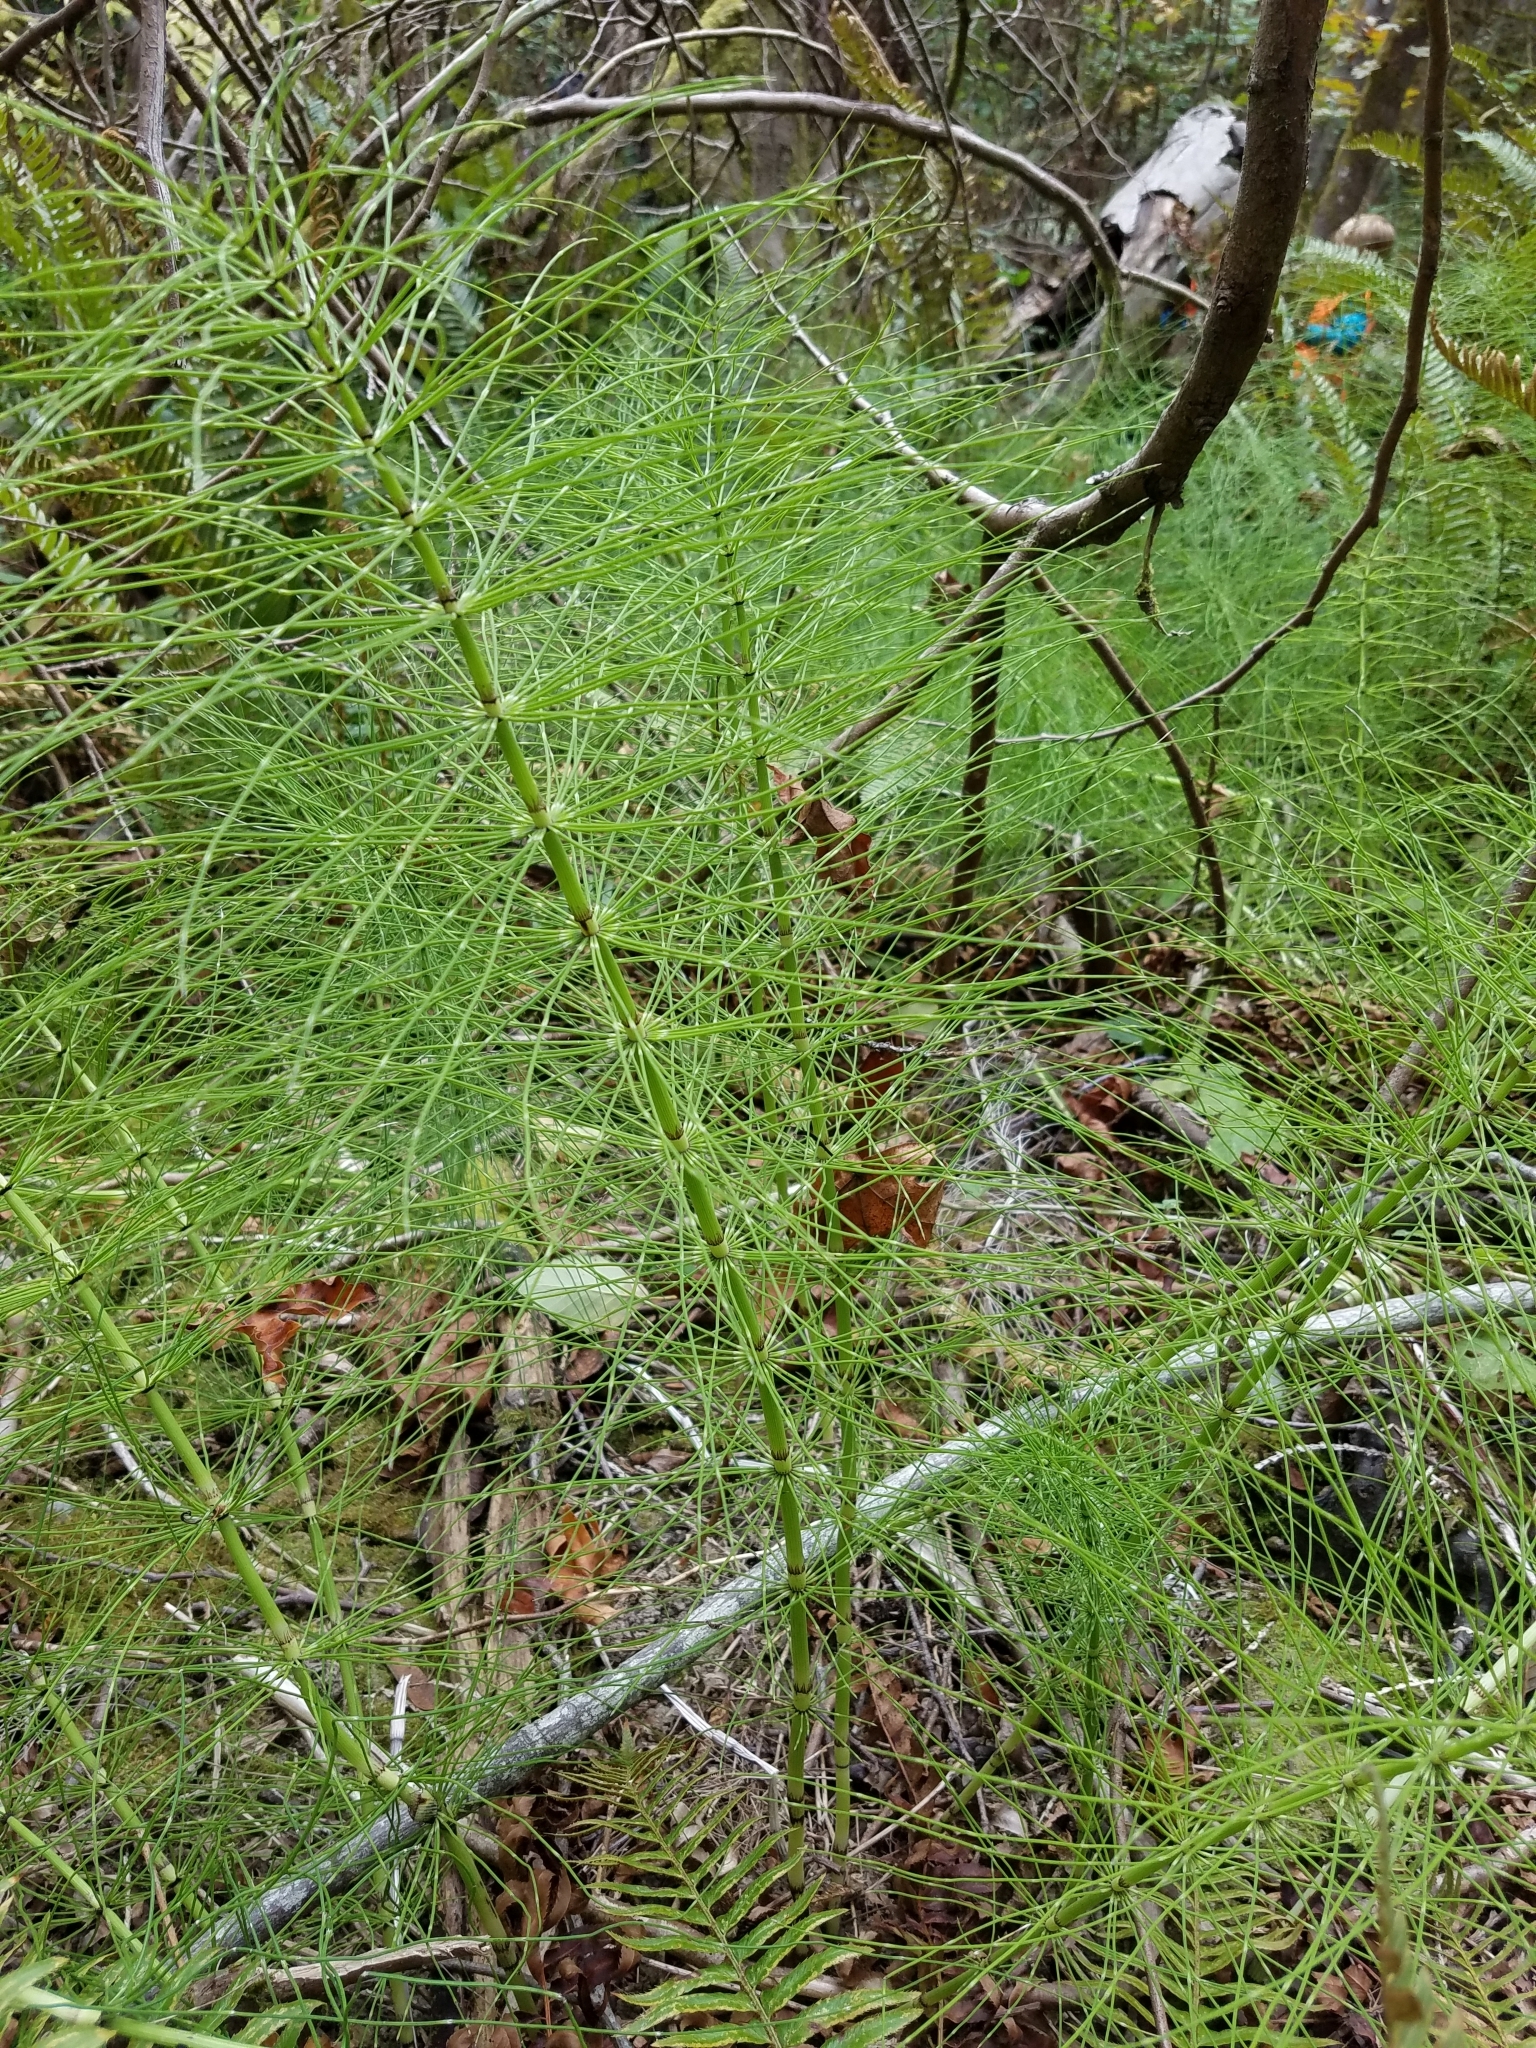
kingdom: Plantae
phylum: Tracheophyta
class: Polypodiopsida
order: Equisetales
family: Equisetaceae
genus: Equisetum
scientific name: Equisetum telmateia
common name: Great horsetail
